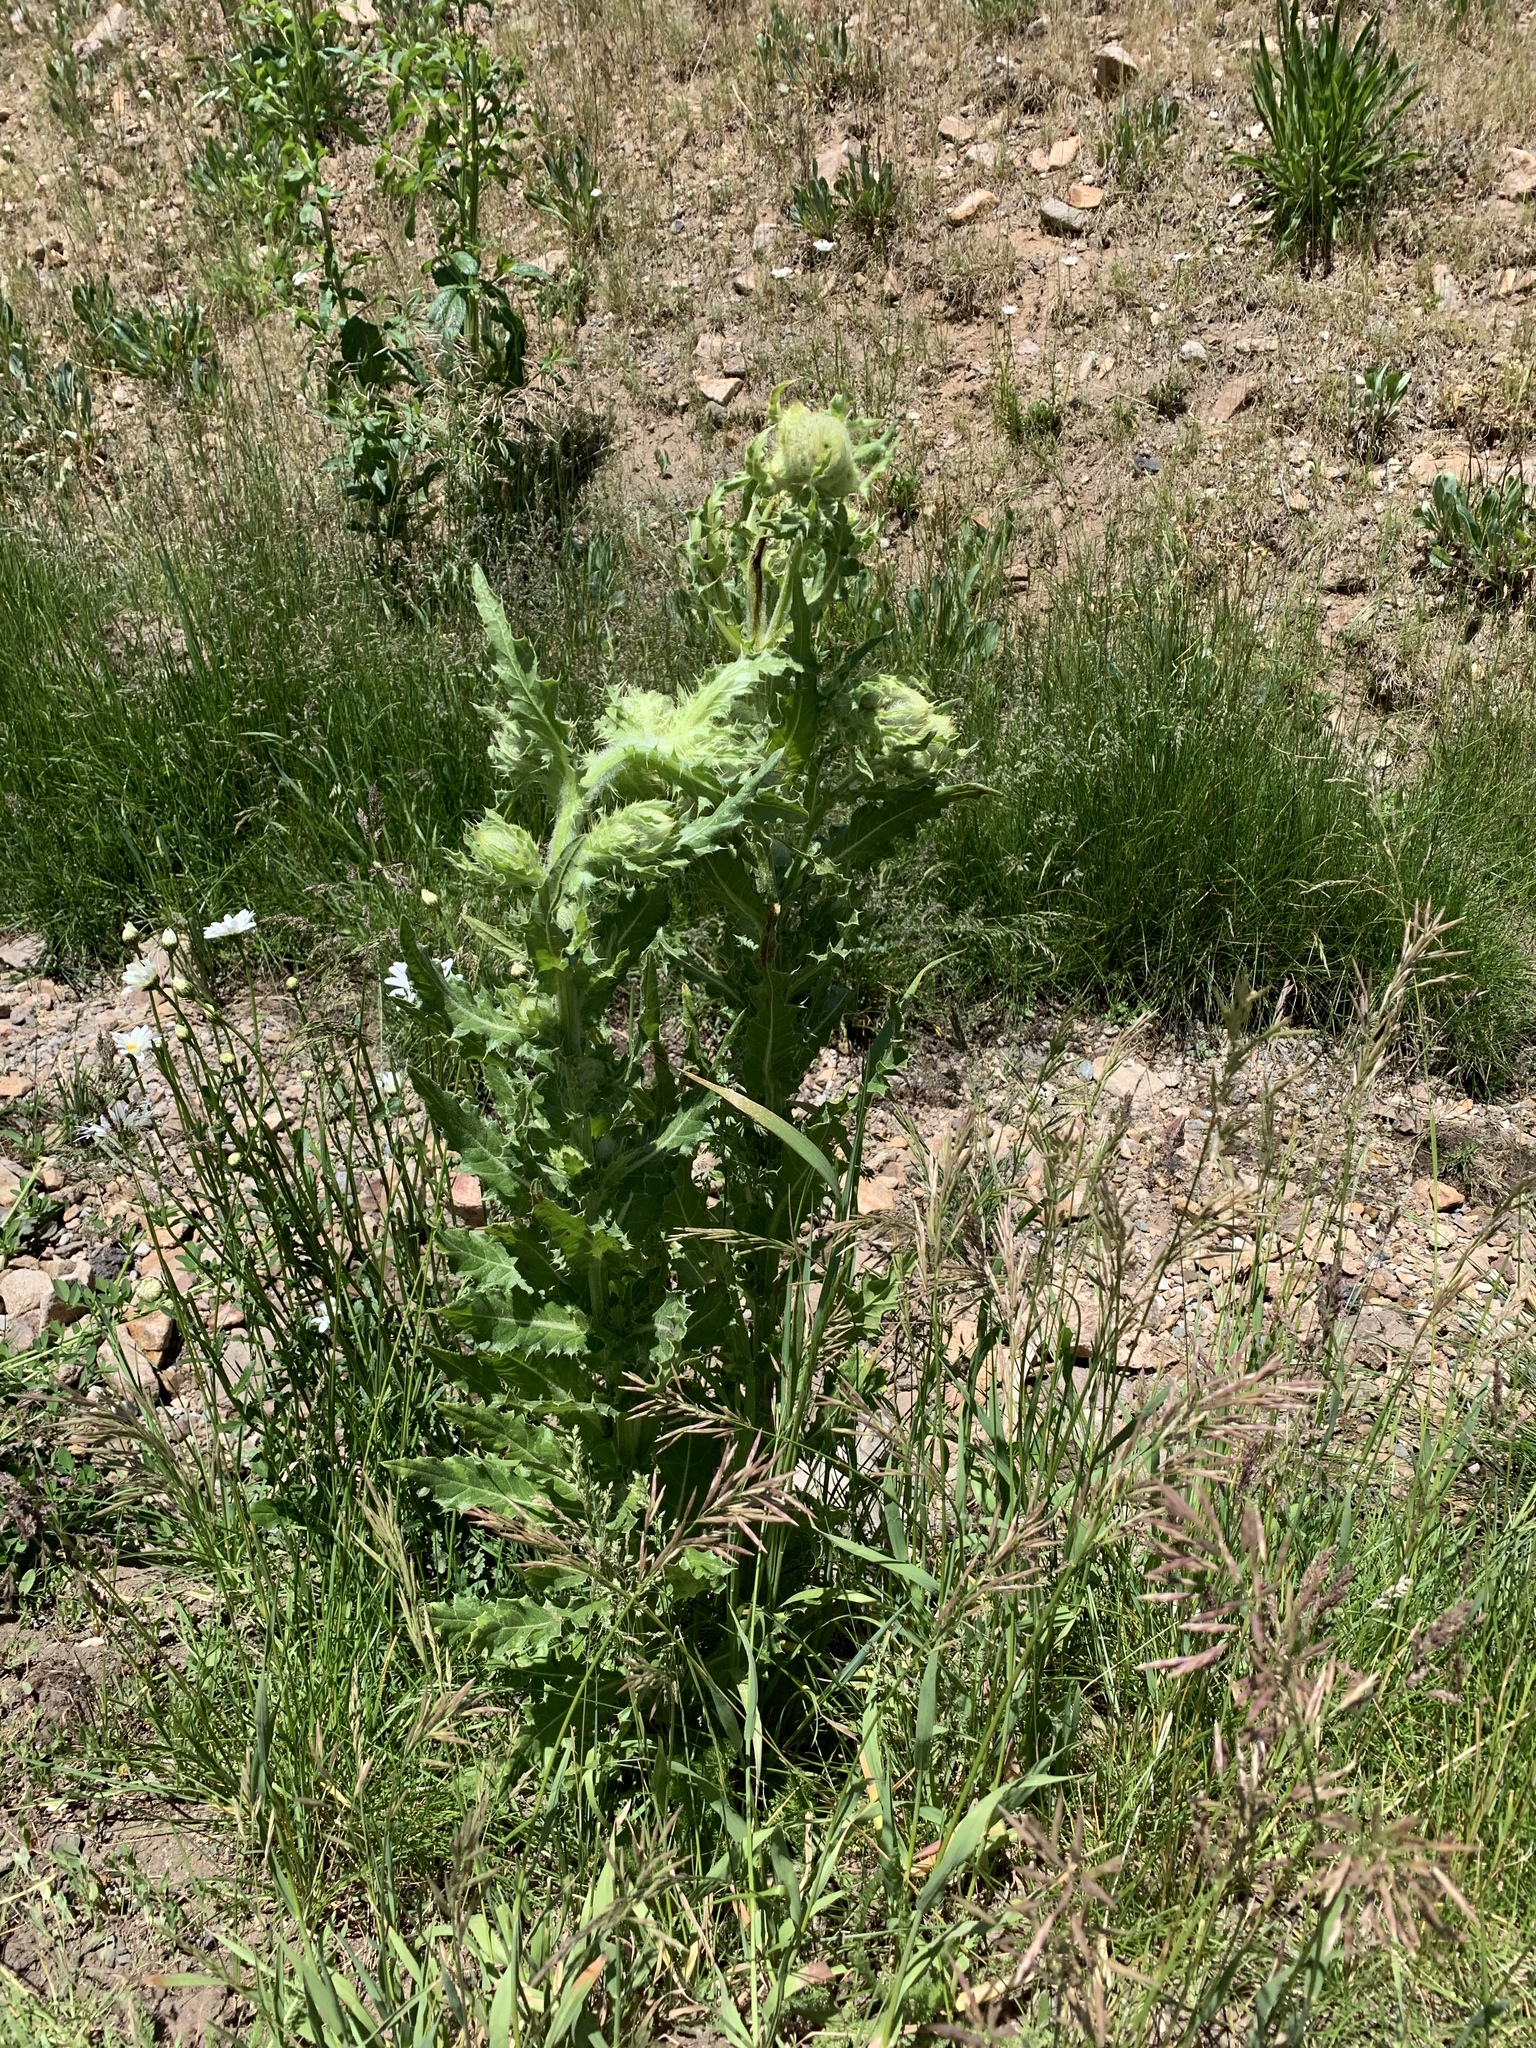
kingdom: Plantae
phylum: Tracheophyta
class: Magnoliopsida
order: Asterales
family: Asteraceae
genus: Cirsium
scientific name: Cirsium parryi
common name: Parry's thistle
